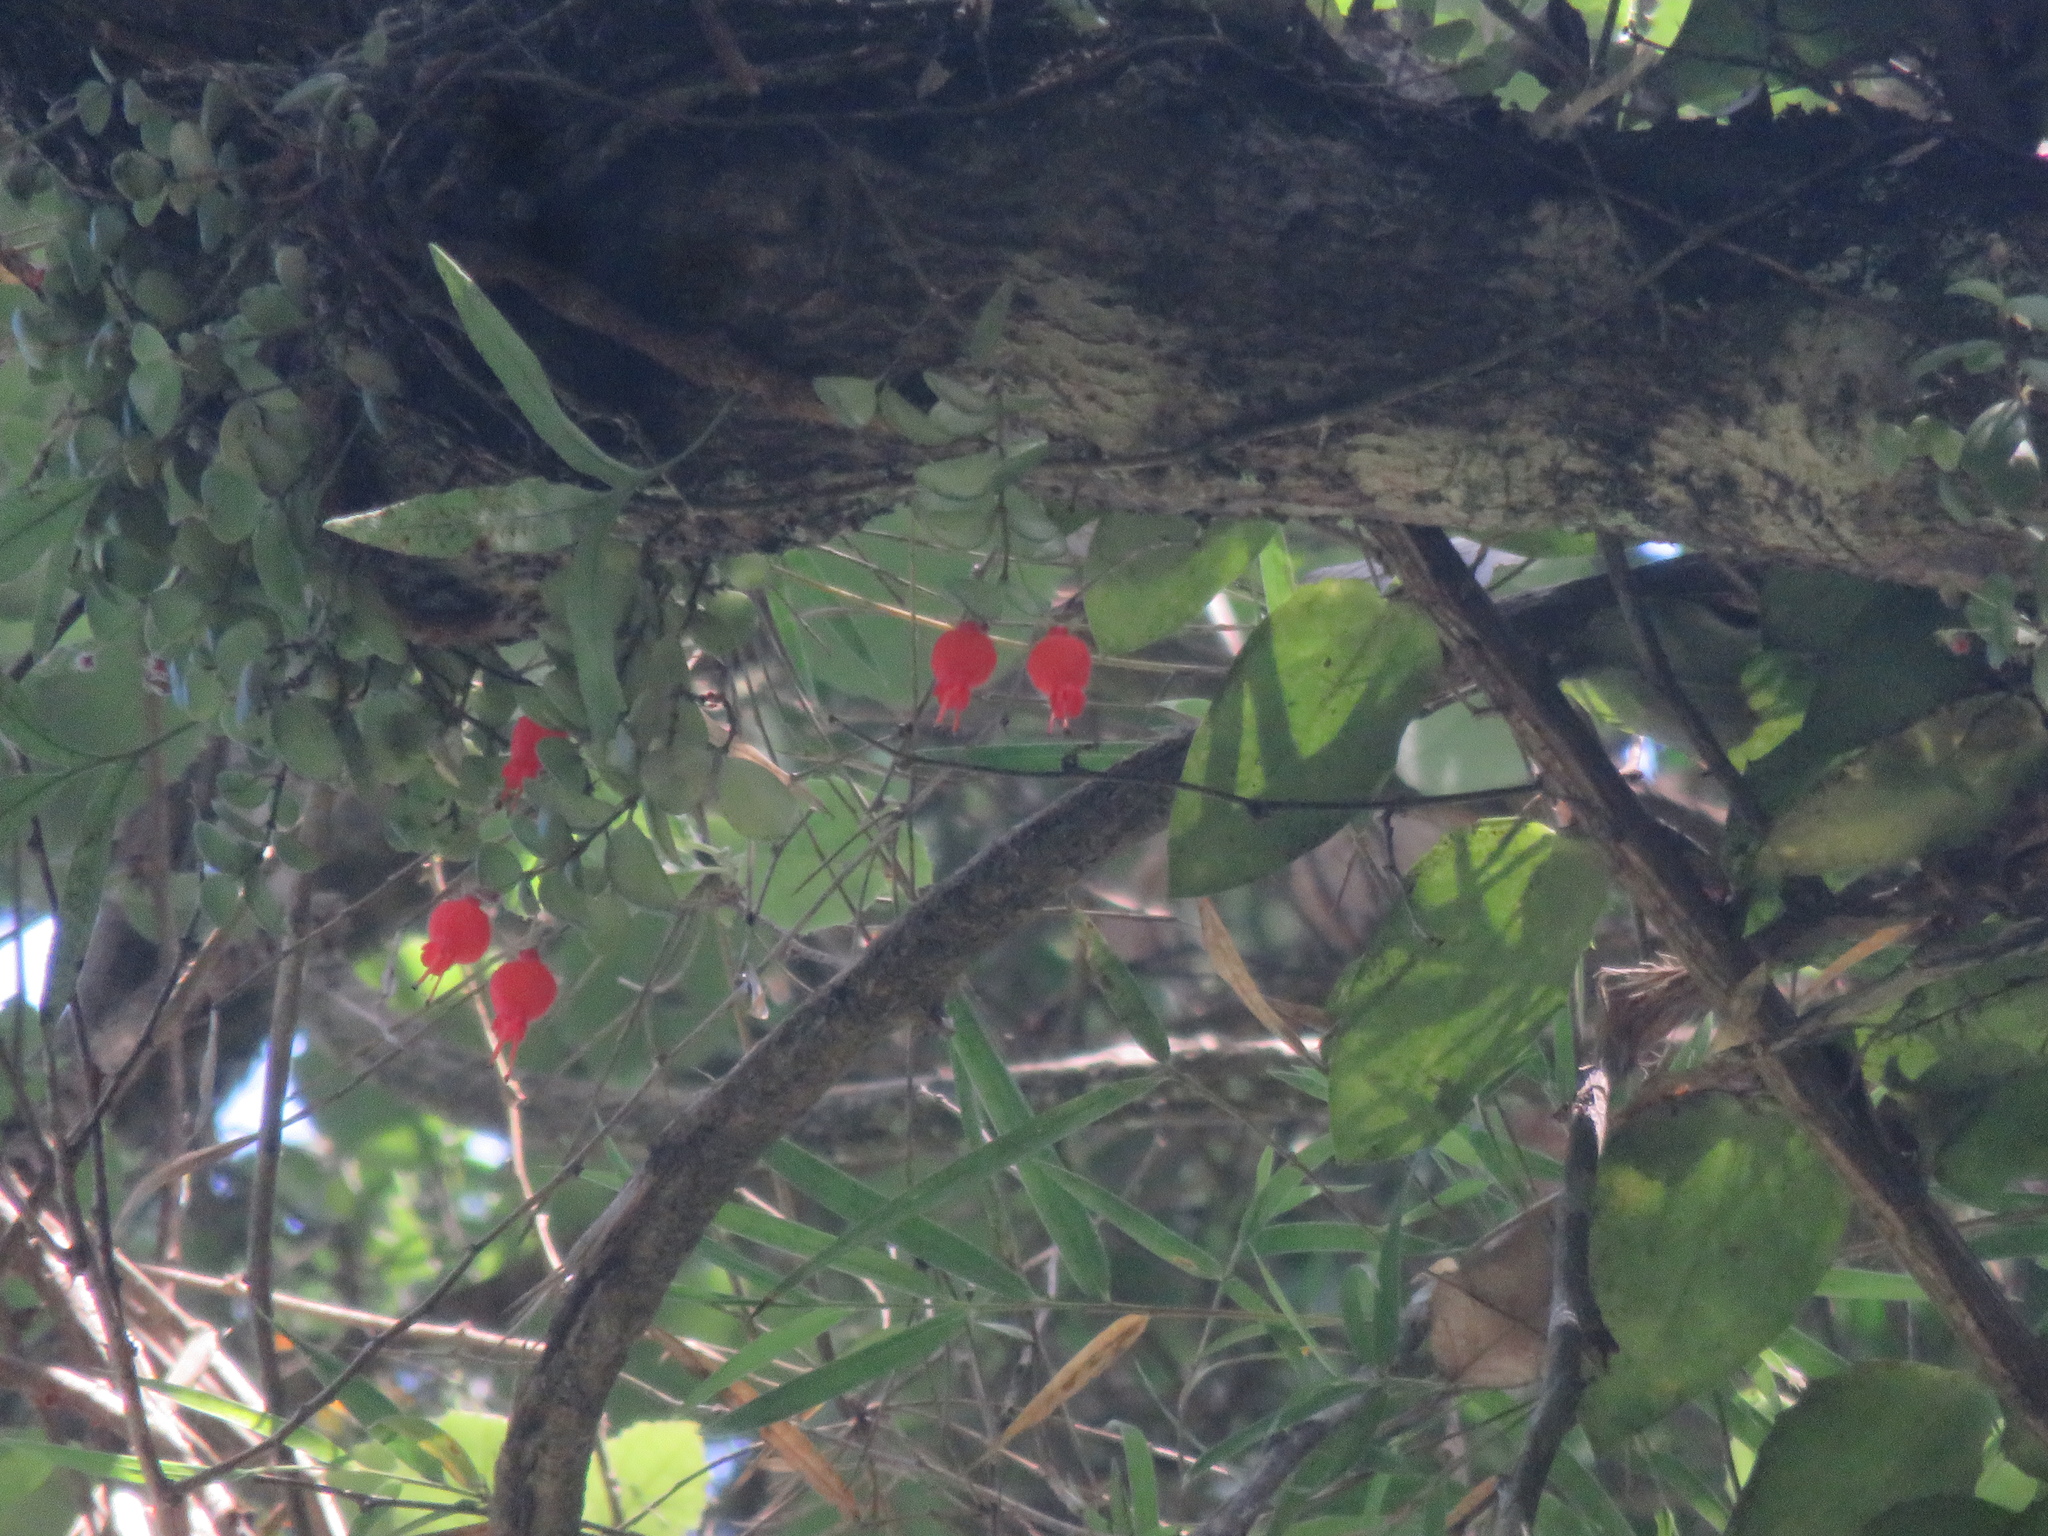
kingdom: Plantae
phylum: Tracheophyta
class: Magnoliopsida
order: Lamiales
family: Gesneriaceae
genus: Sarmienta
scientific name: Sarmienta scandens
